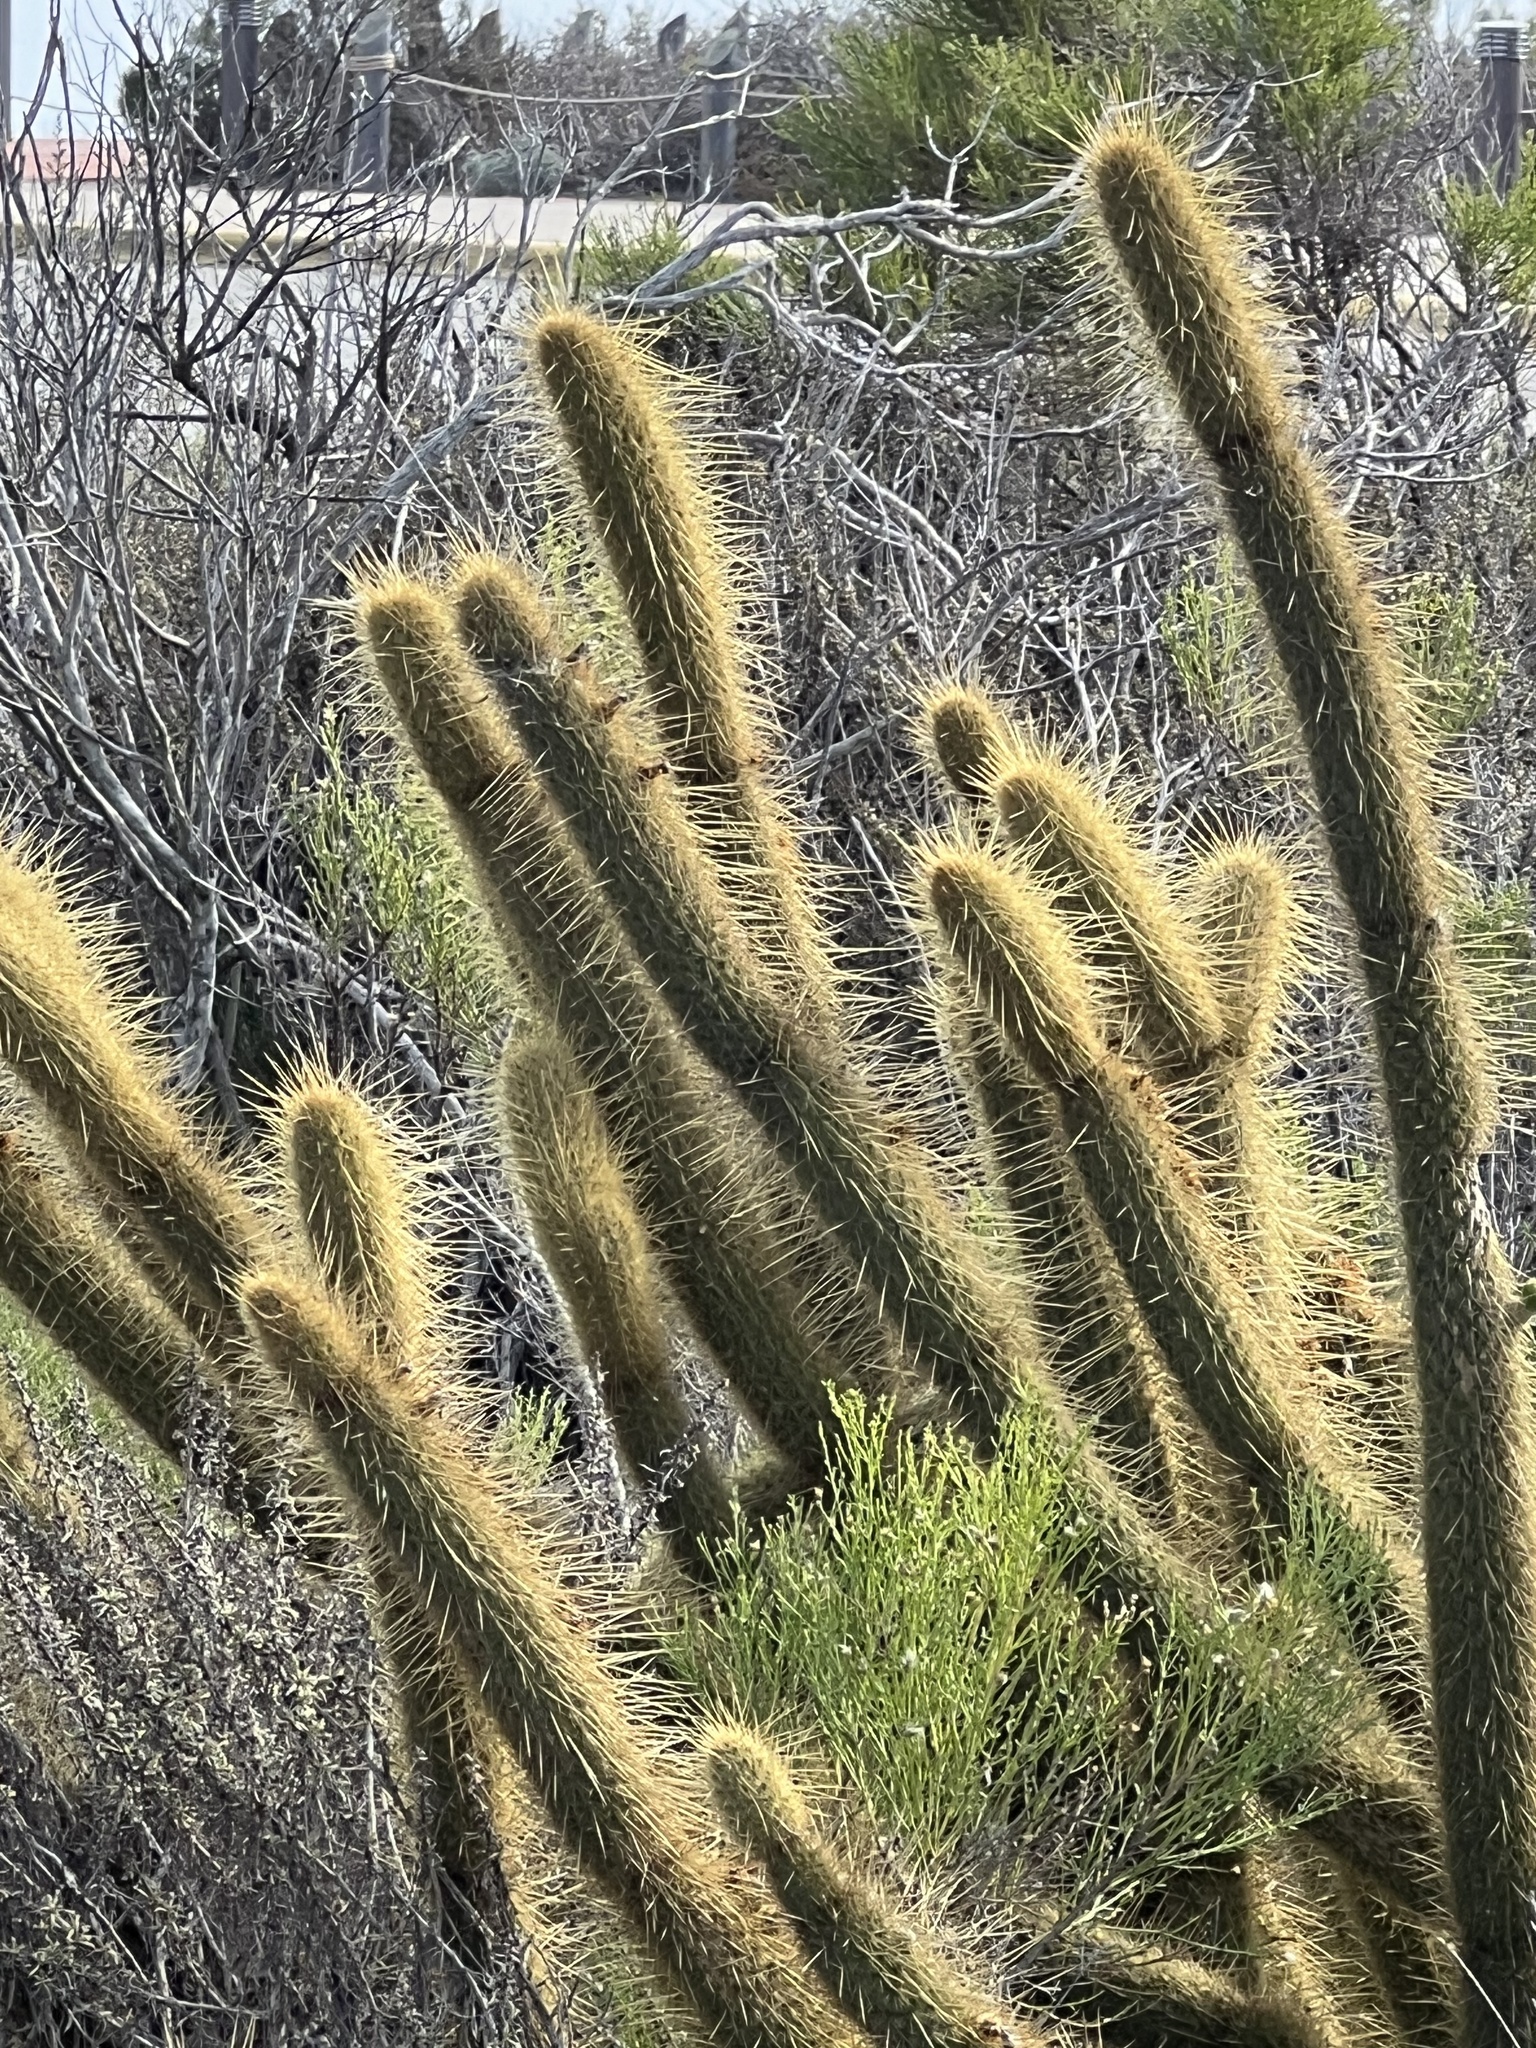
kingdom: Plantae
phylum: Tracheophyta
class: Magnoliopsida
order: Caryophyllales
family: Cactaceae
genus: Bergerocactus
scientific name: Bergerocactus emoryi
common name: Golden snakecactus
